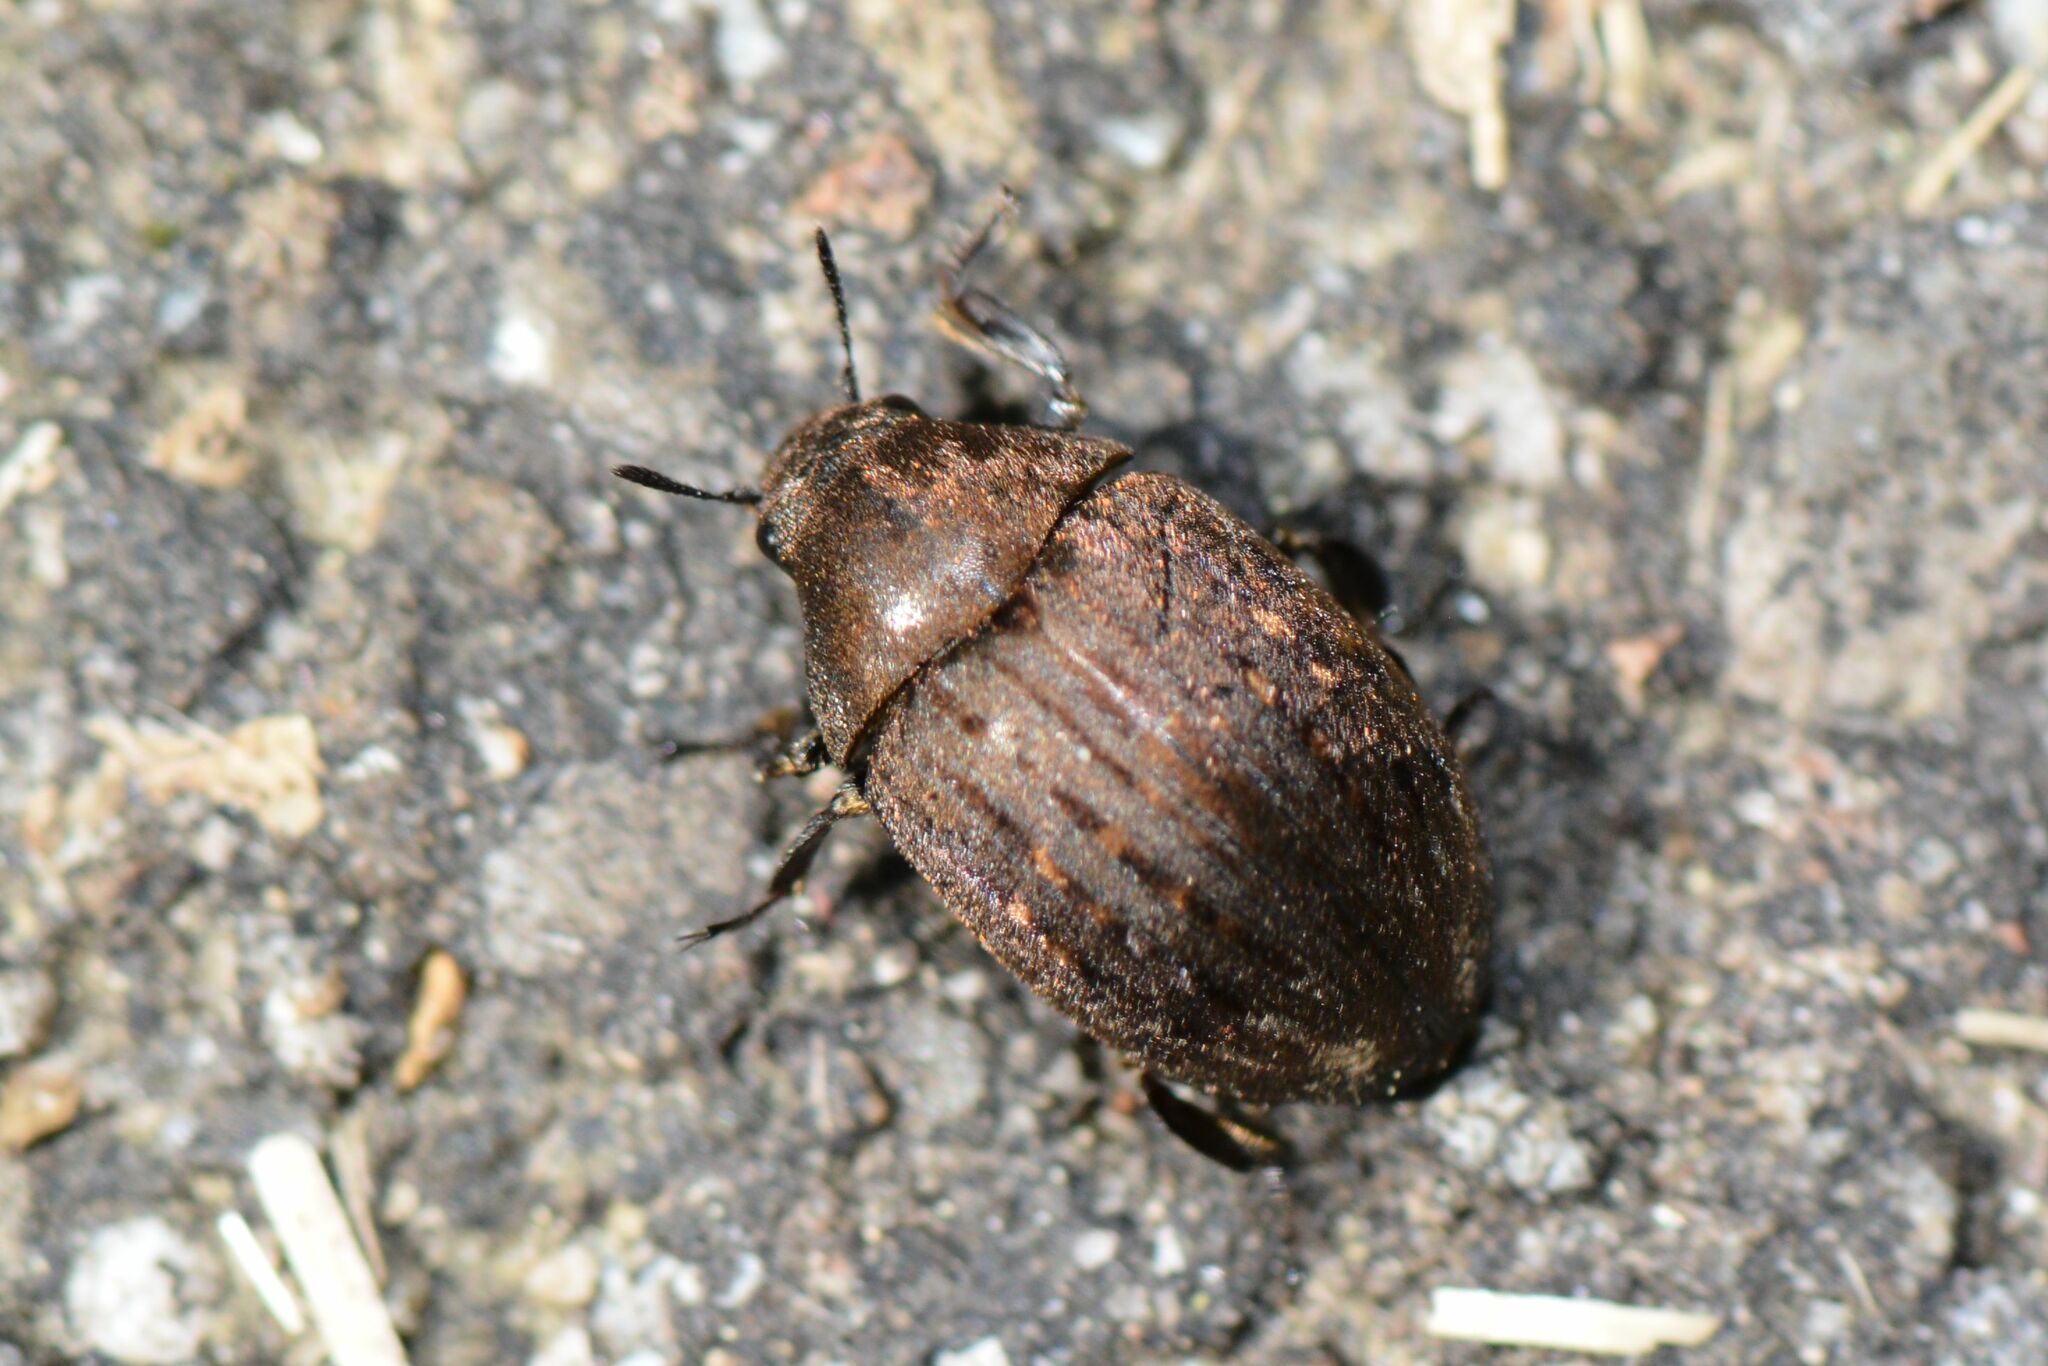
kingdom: Animalia
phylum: Arthropoda
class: Insecta
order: Coleoptera
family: Byrrhidae
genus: Byrrhus
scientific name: Byrrhus pilula
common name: Pill beetle
